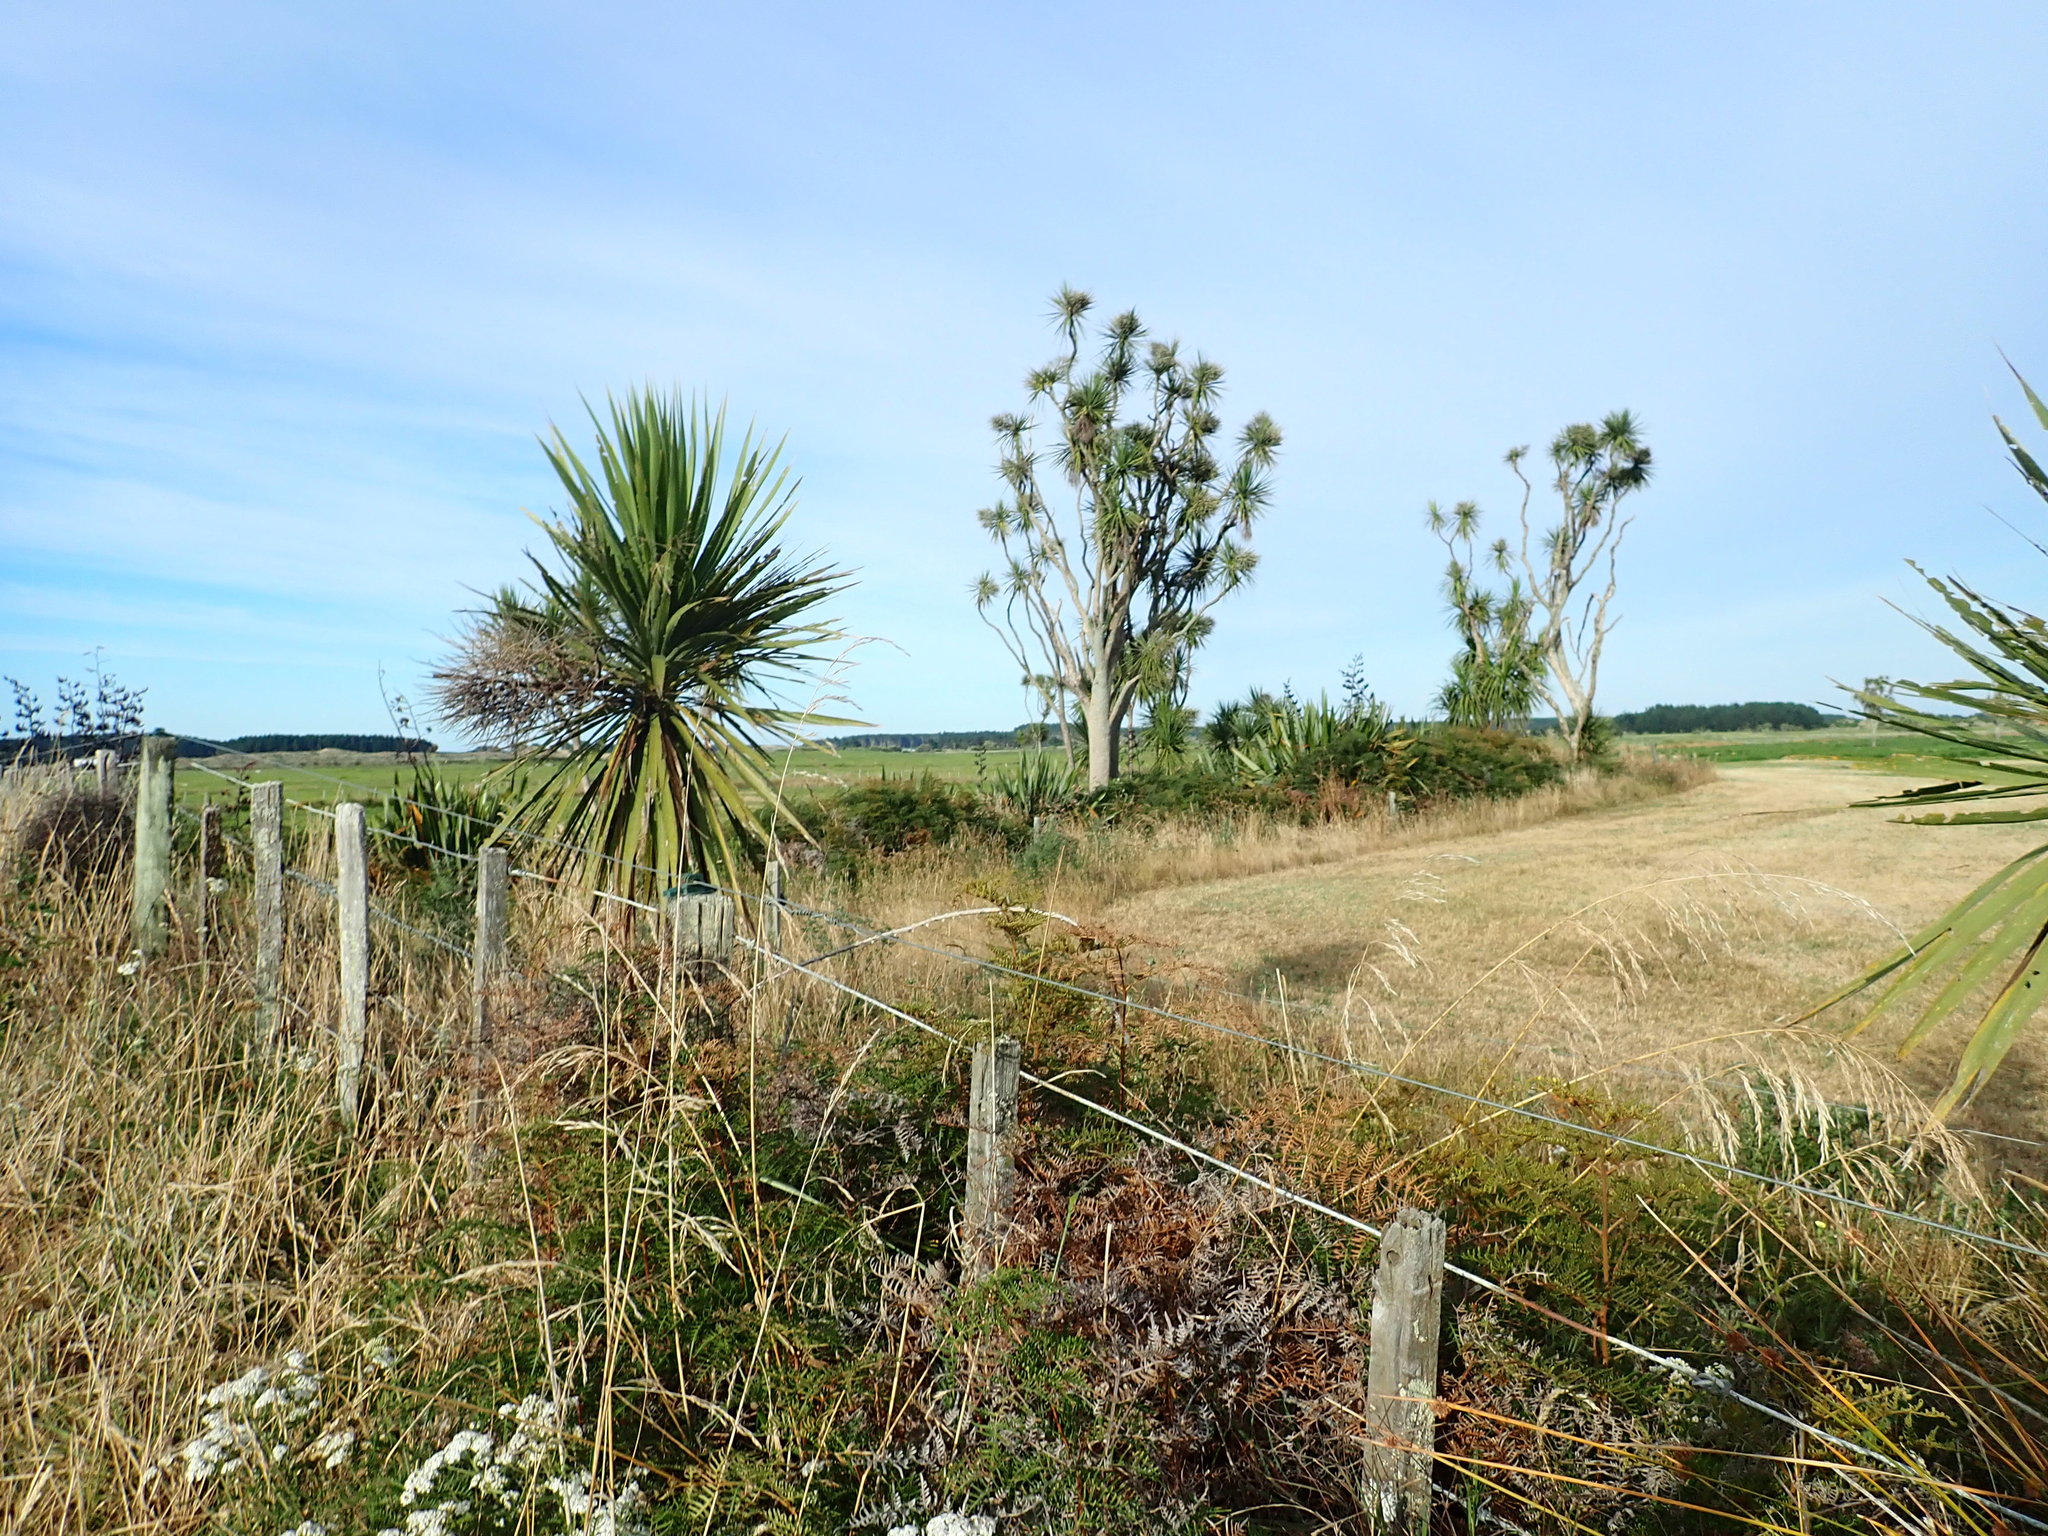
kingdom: Plantae
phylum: Tracheophyta
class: Liliopsida
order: Asparagales
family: Asparagaceae
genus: Cordyline
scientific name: Cordyline australis
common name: Cabbage-palm
